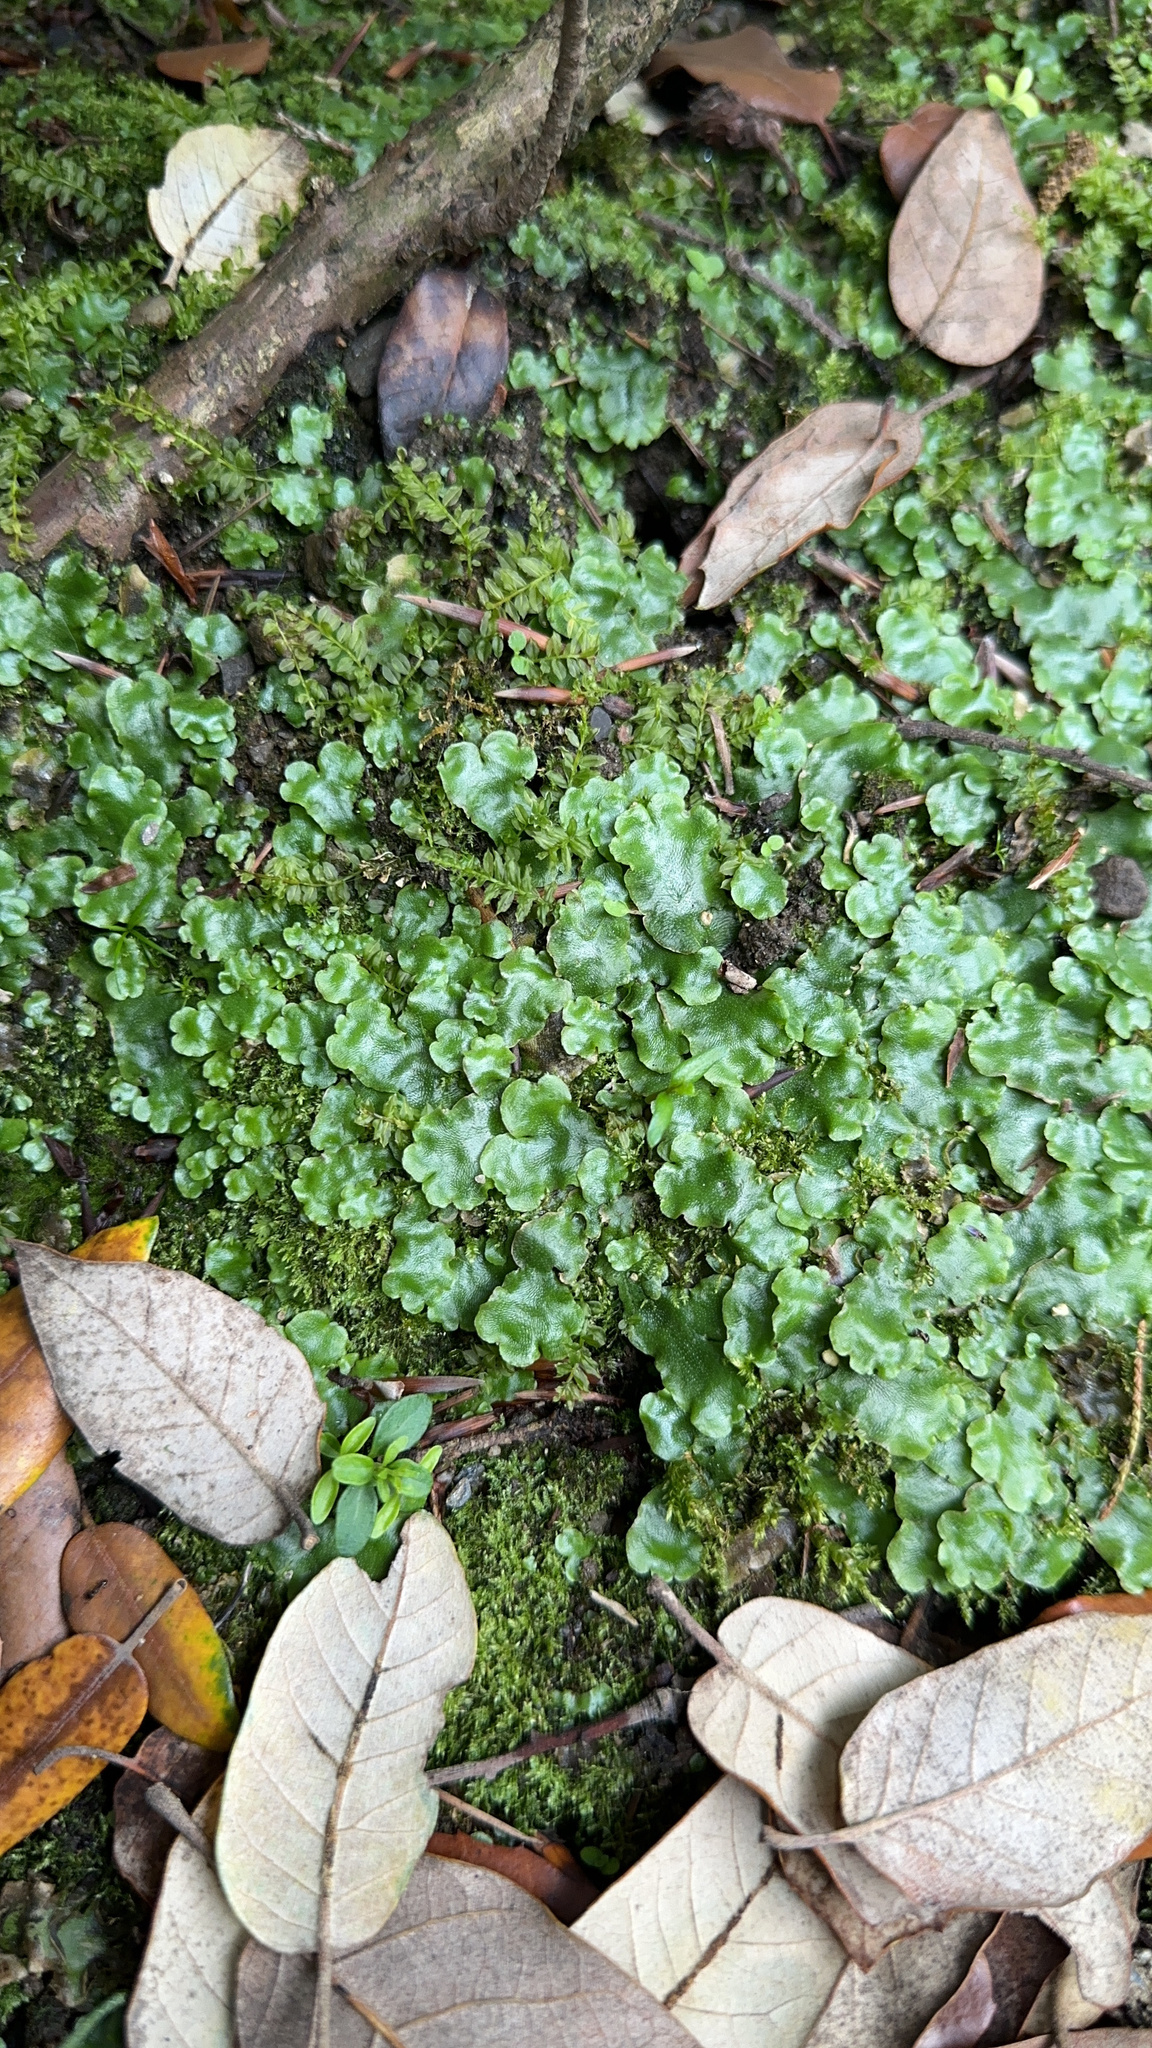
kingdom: Plantae
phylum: Marchantiophyta
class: Marchantiopsida
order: Lunulariales
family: Lunulariaceae
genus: Lunularia
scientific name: Lunularia cruciata
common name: Crescent-cup liverwort
